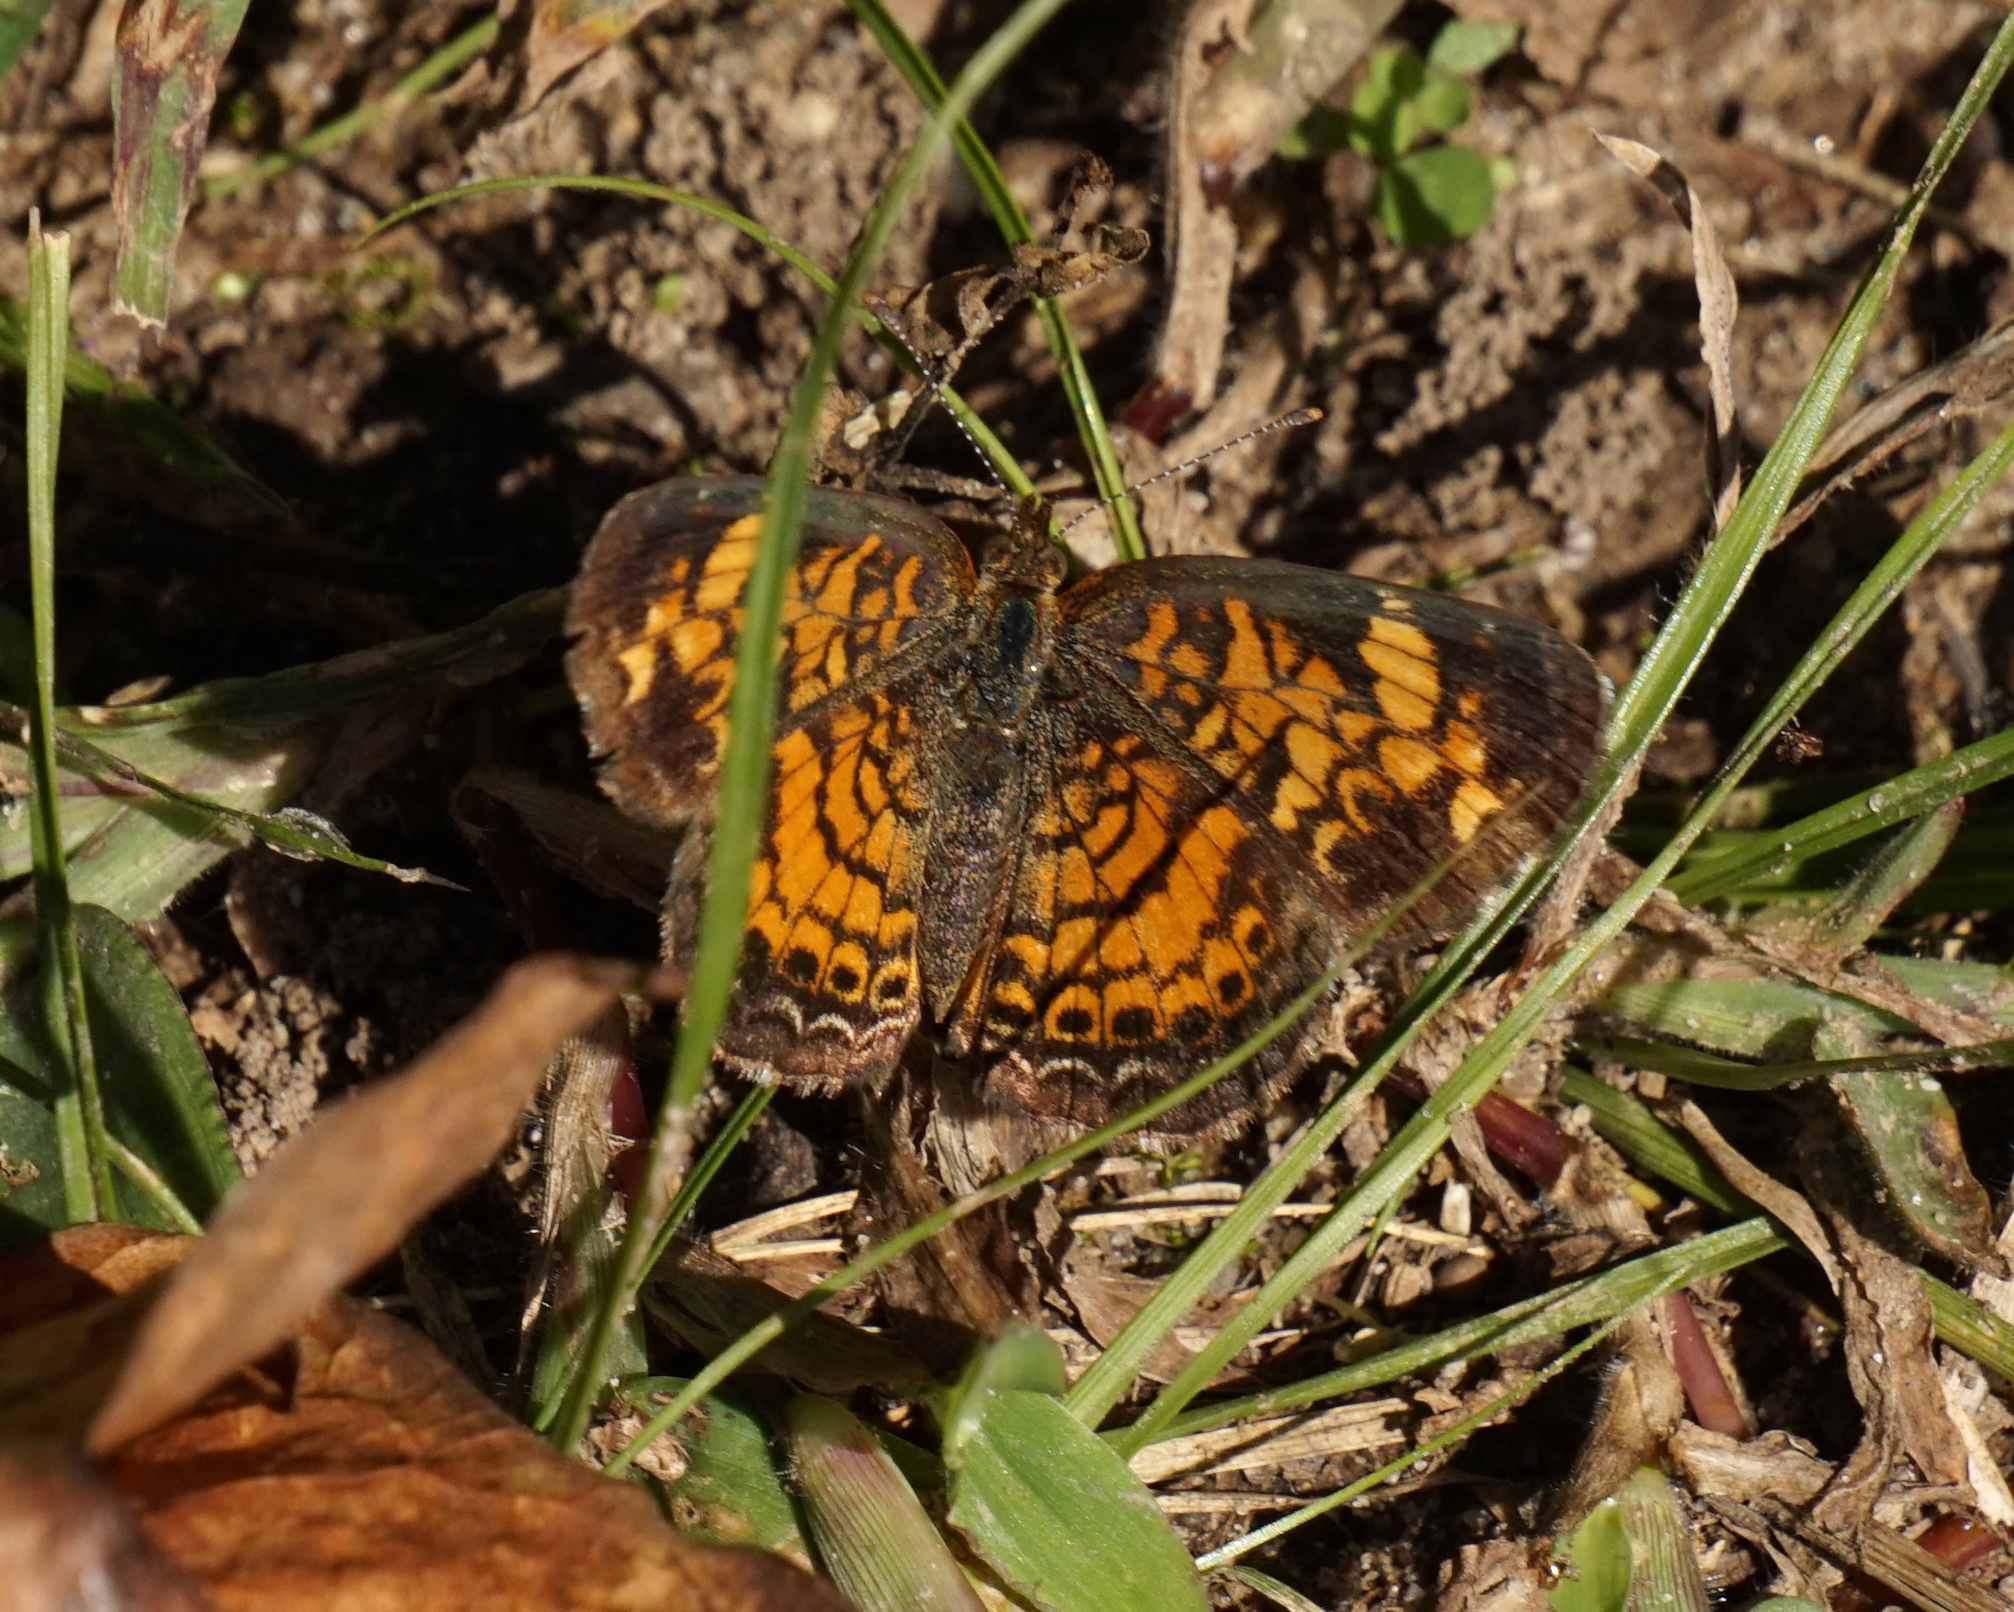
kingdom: Animalia
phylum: Arthropoda
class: Insecta
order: Lepidoptera
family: Nymphalidae
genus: Phyciodes
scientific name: Phyciodes tharos
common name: Pearl crescent
